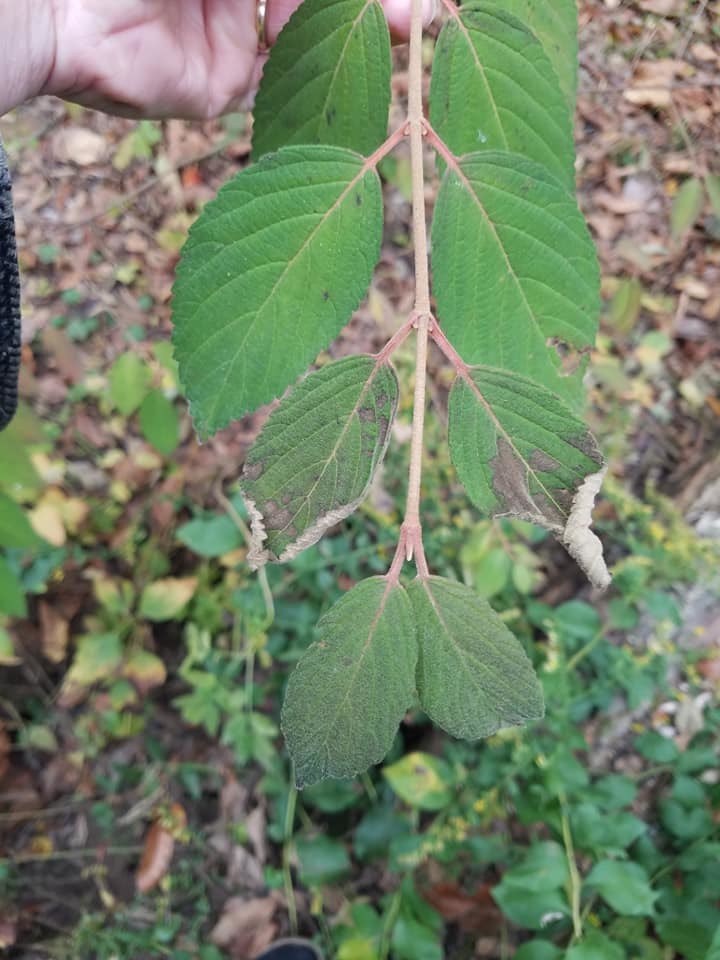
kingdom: Plantae
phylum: Tracheophyta
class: Magnoliopsida
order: Dipsacales
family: Viburnaceae
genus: Viburnum
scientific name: Viburnum plicatum
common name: Japanese snowball
